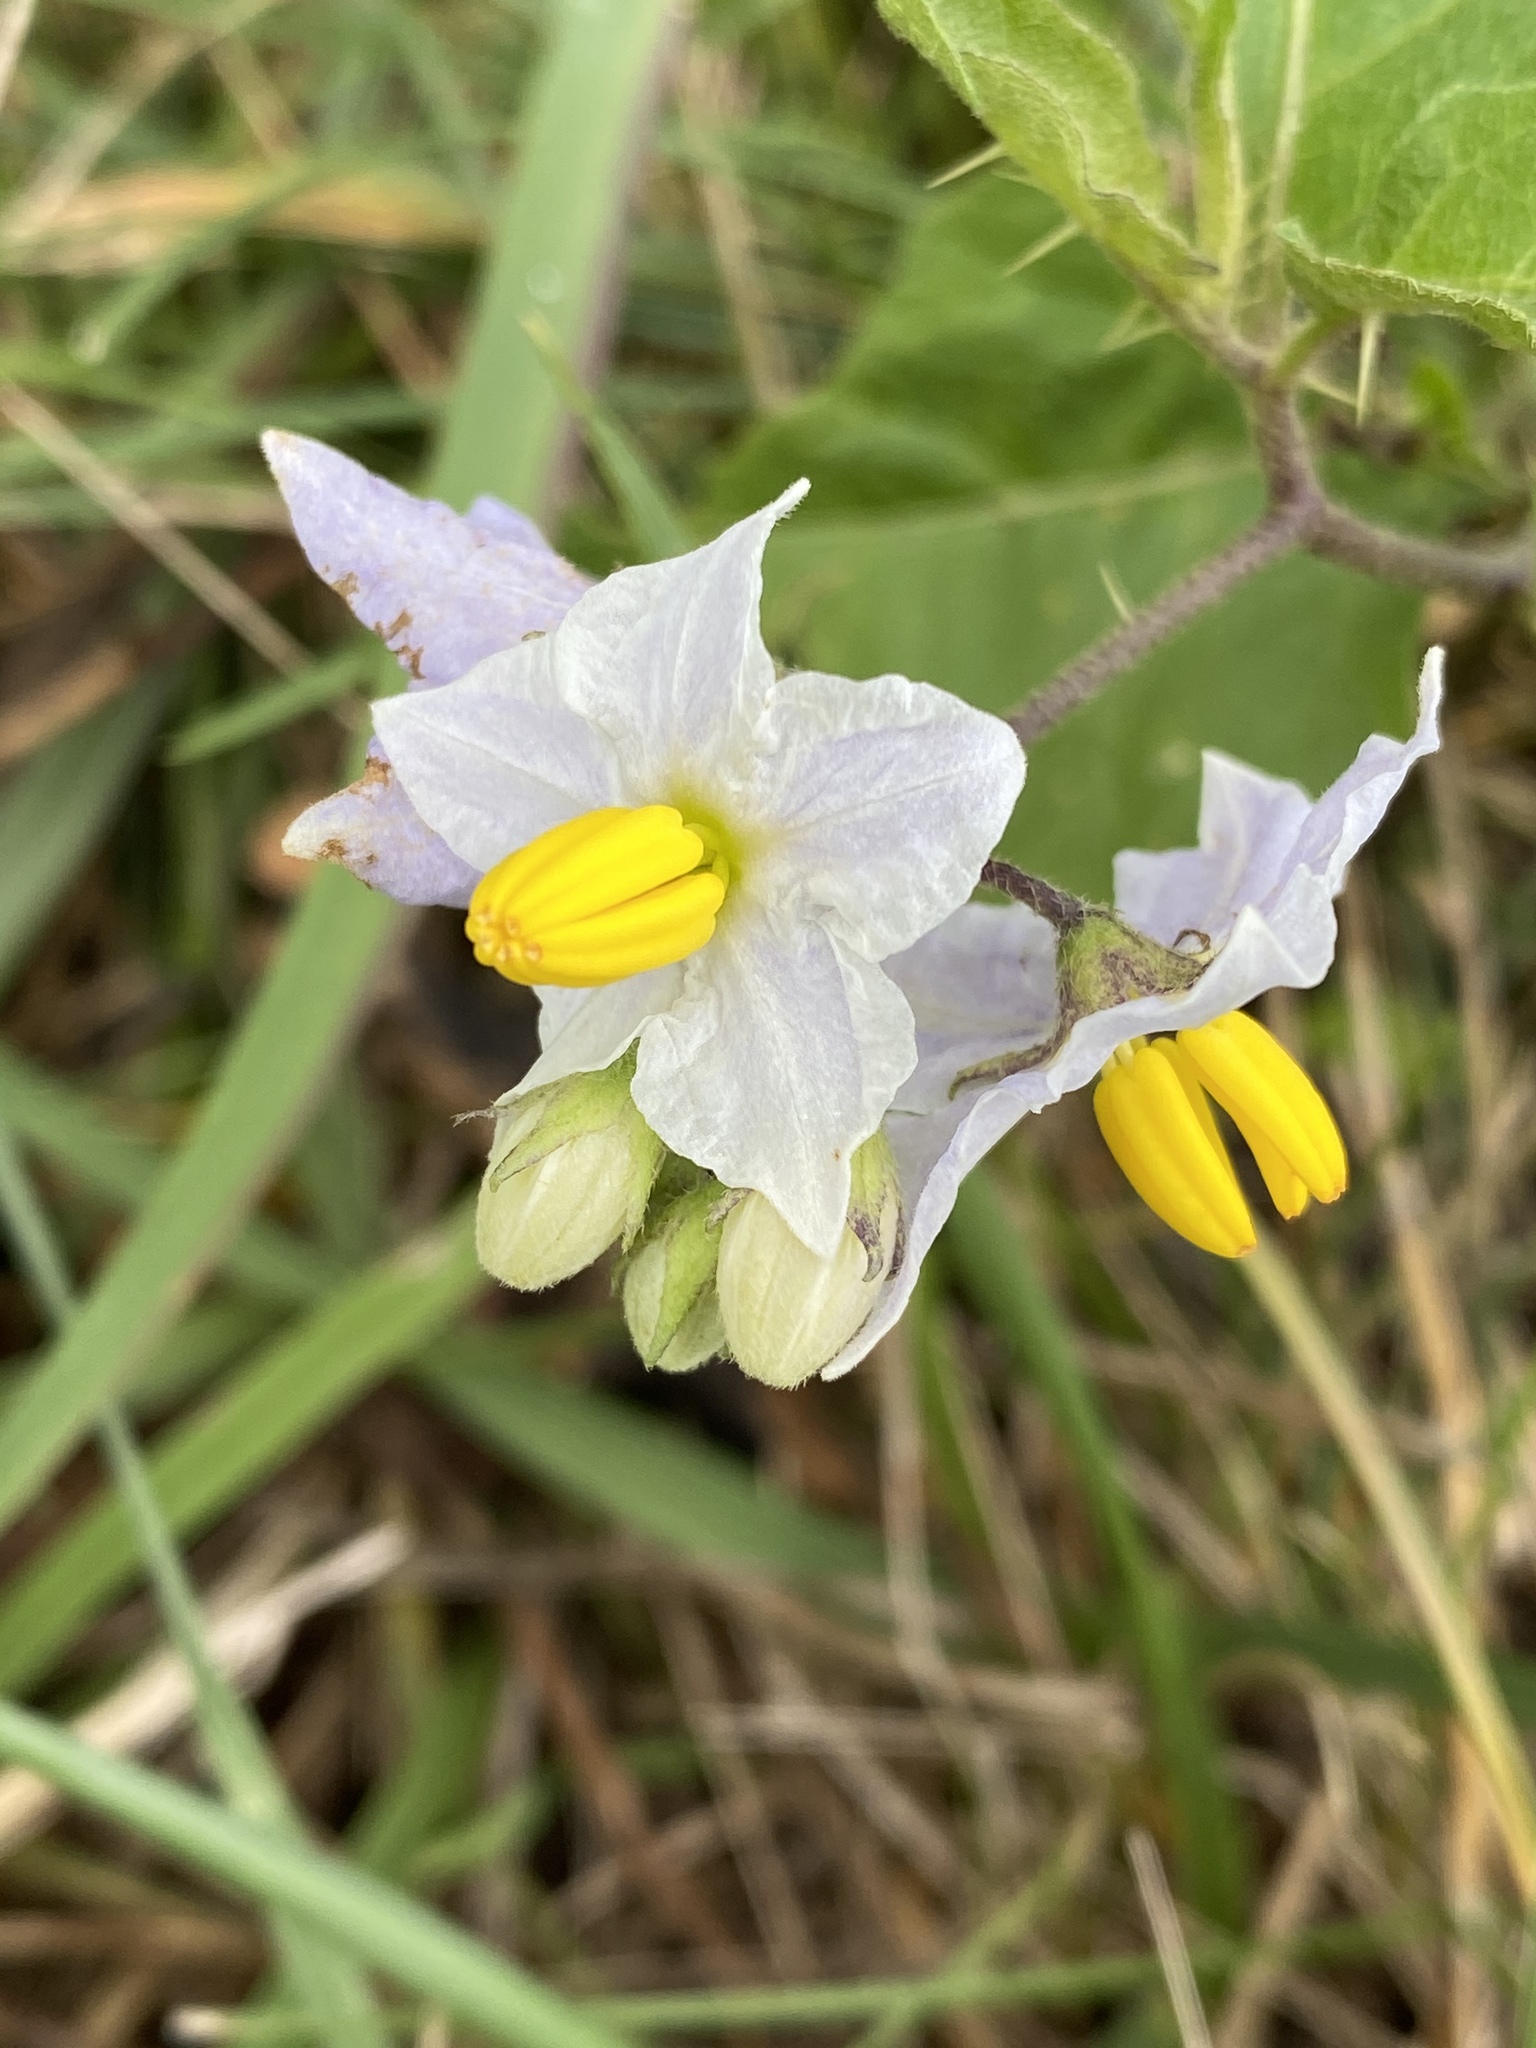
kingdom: Plantae
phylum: Tracheophyta
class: Magnoliopsida
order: Solanales
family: Solanaceae
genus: Solanum
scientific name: Solanum carolinense
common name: Horse-nettle
